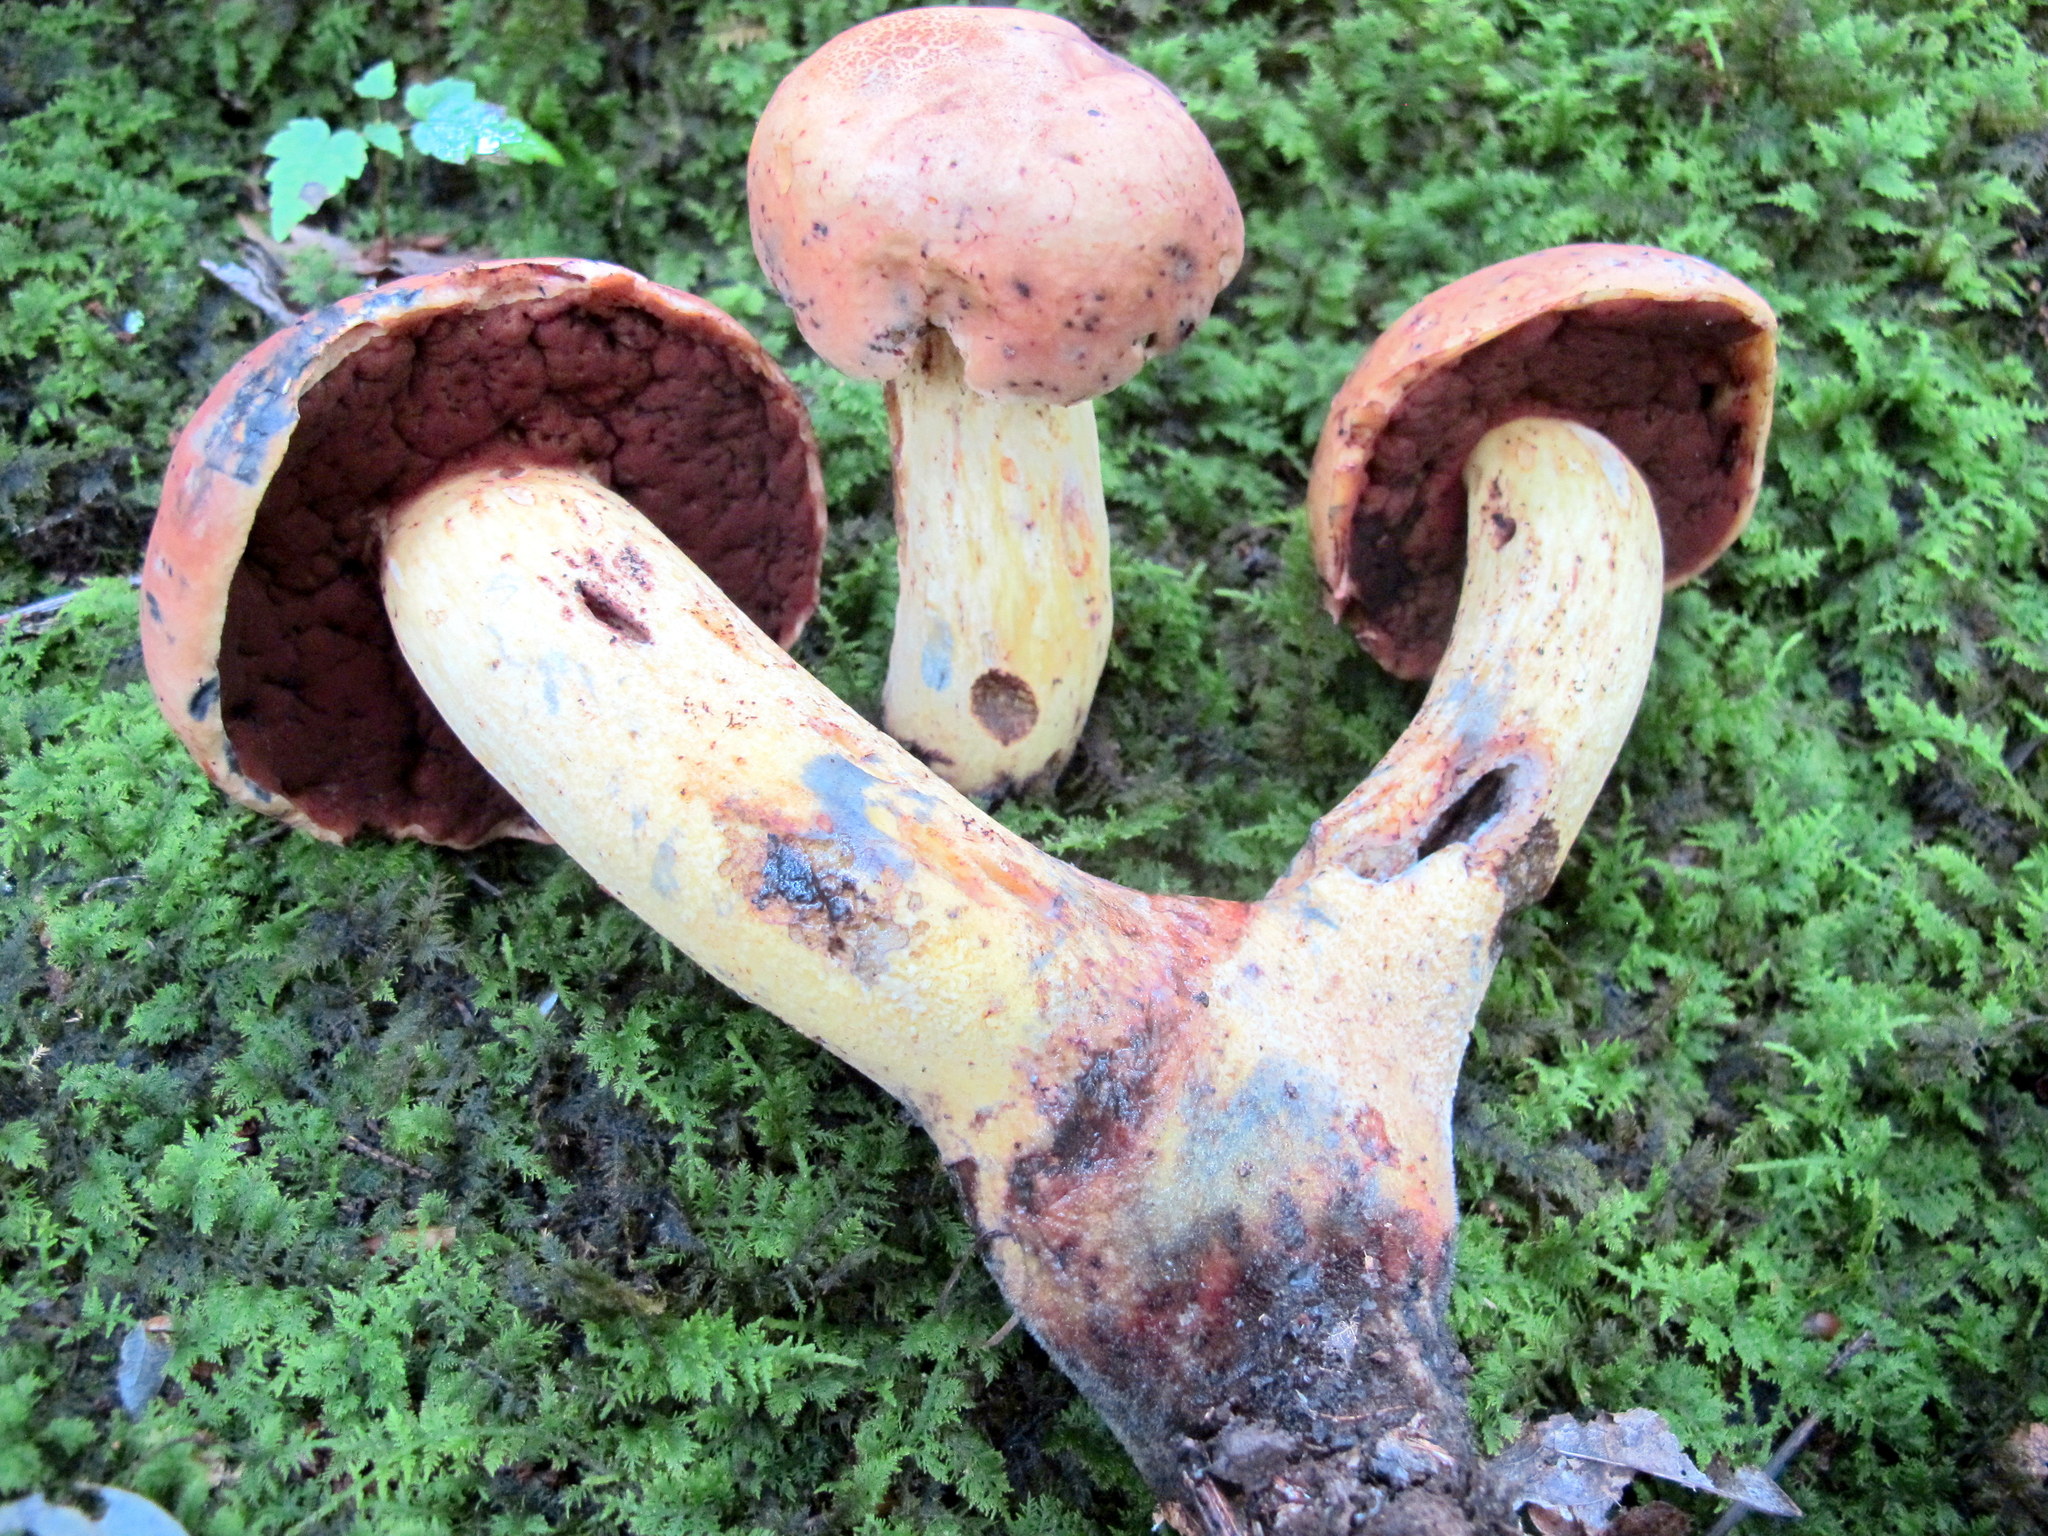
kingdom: Fungi
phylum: Basidiomycota
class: Agaricomycetes
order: Boletales
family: Boletaceae
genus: Boletus
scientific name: Boletus subluridellus
